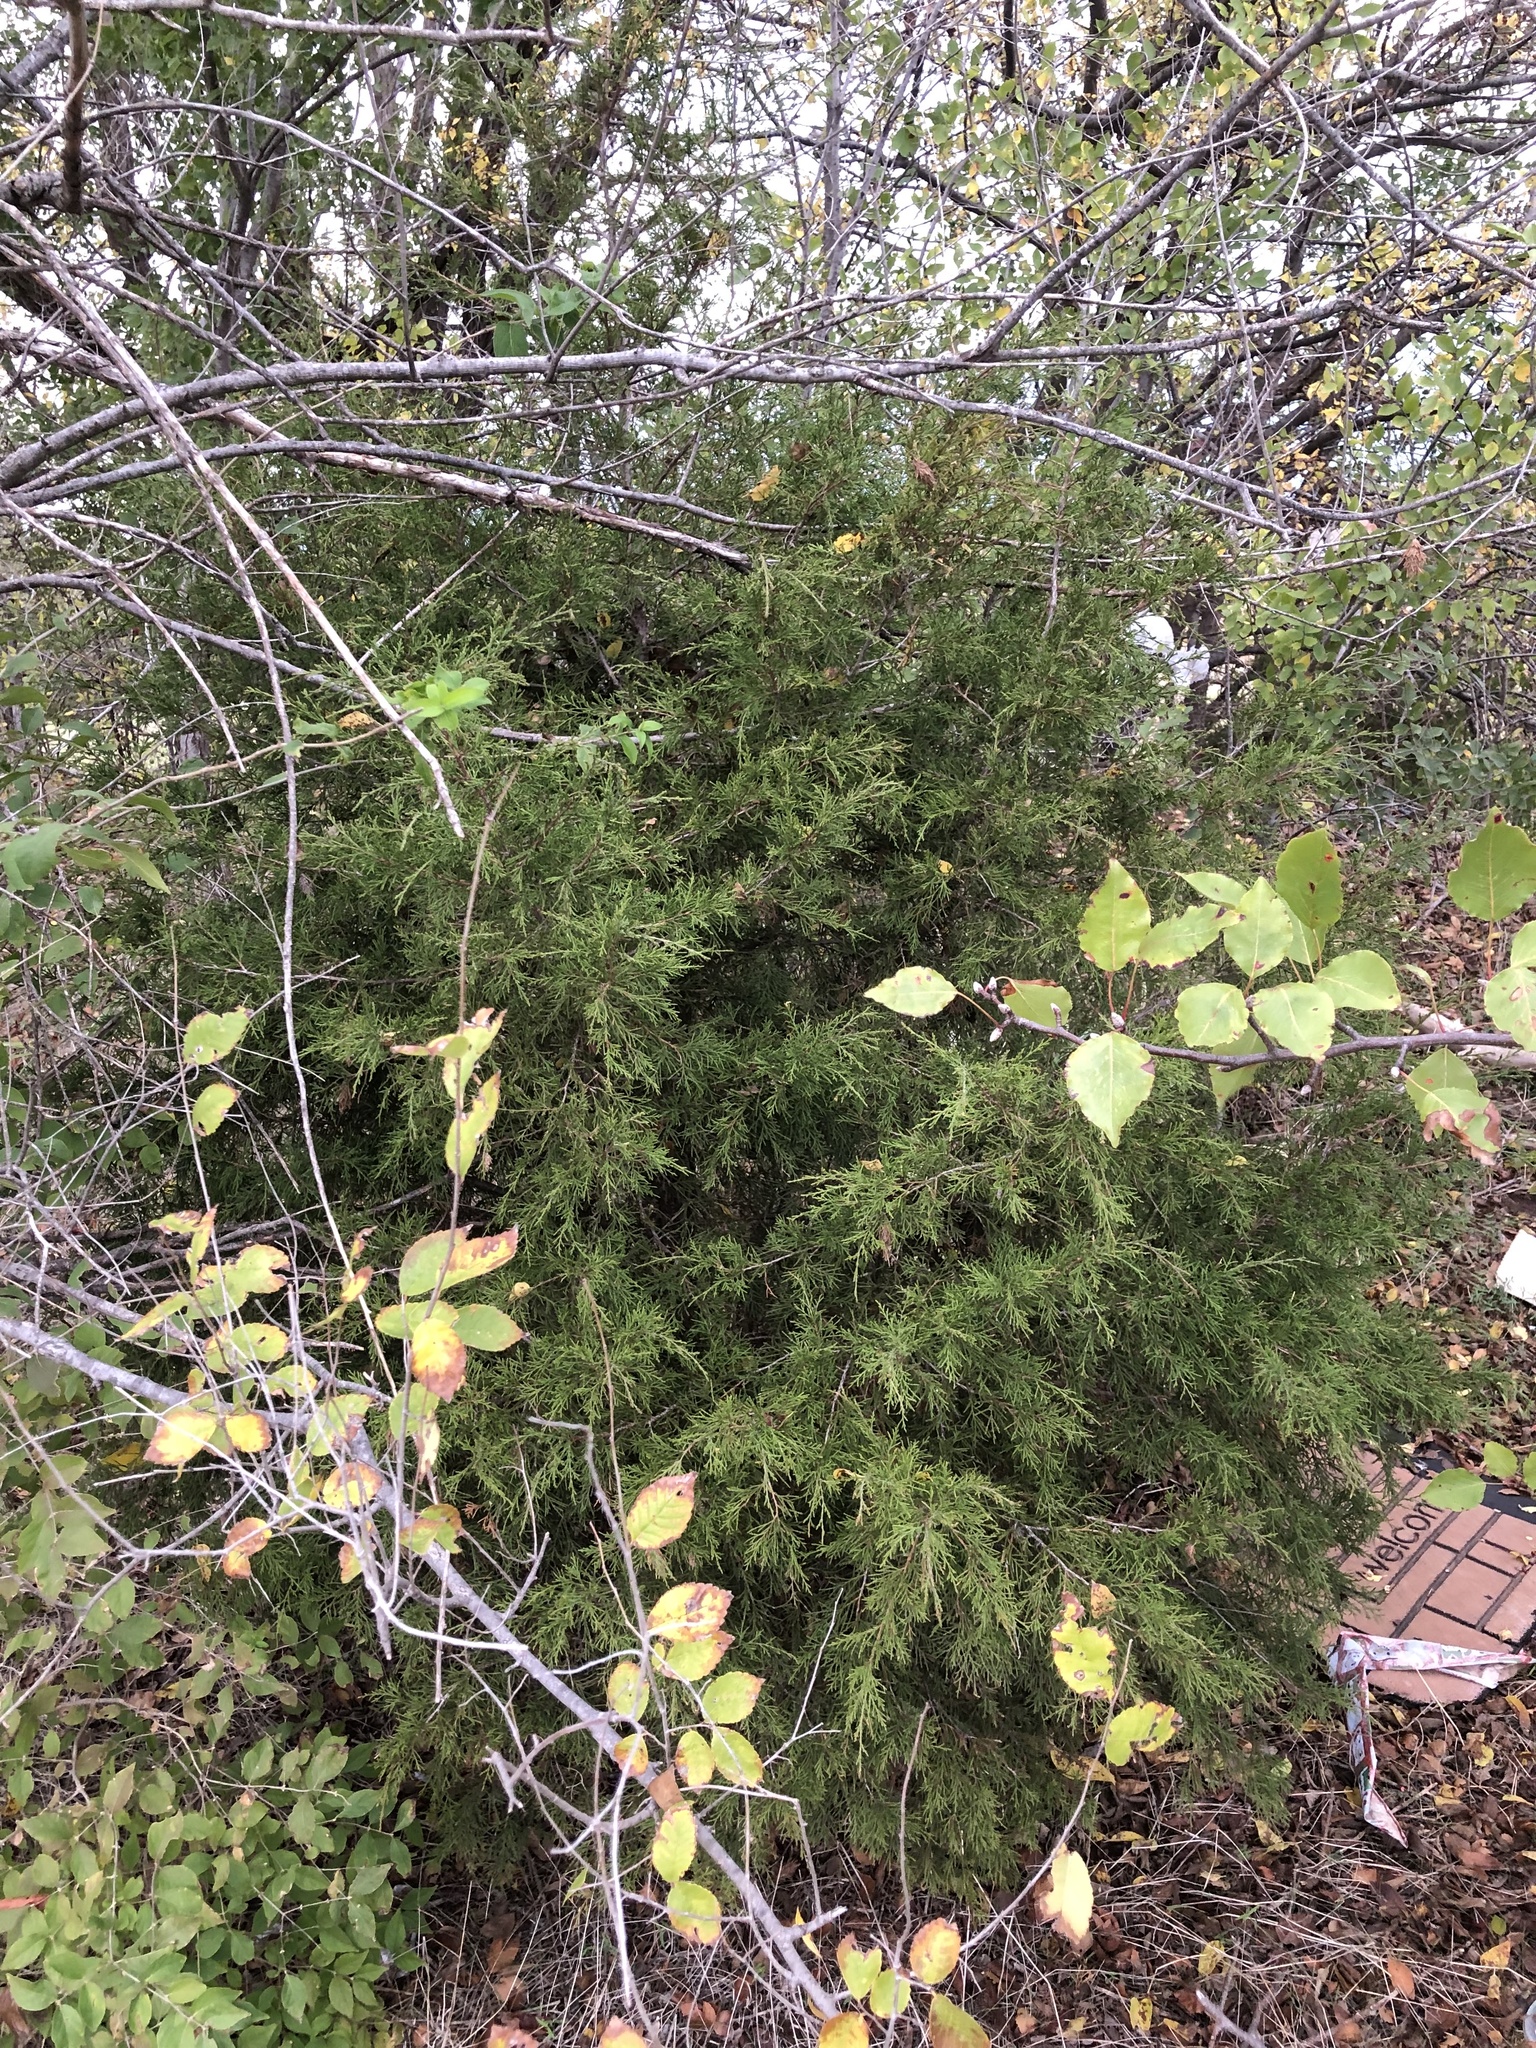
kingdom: Plantae
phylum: Tracheophyta
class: Pinopsida
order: Pinales
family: Cupressaceae
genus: Juniperus
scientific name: Juniperus virginiana
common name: Red juniper
